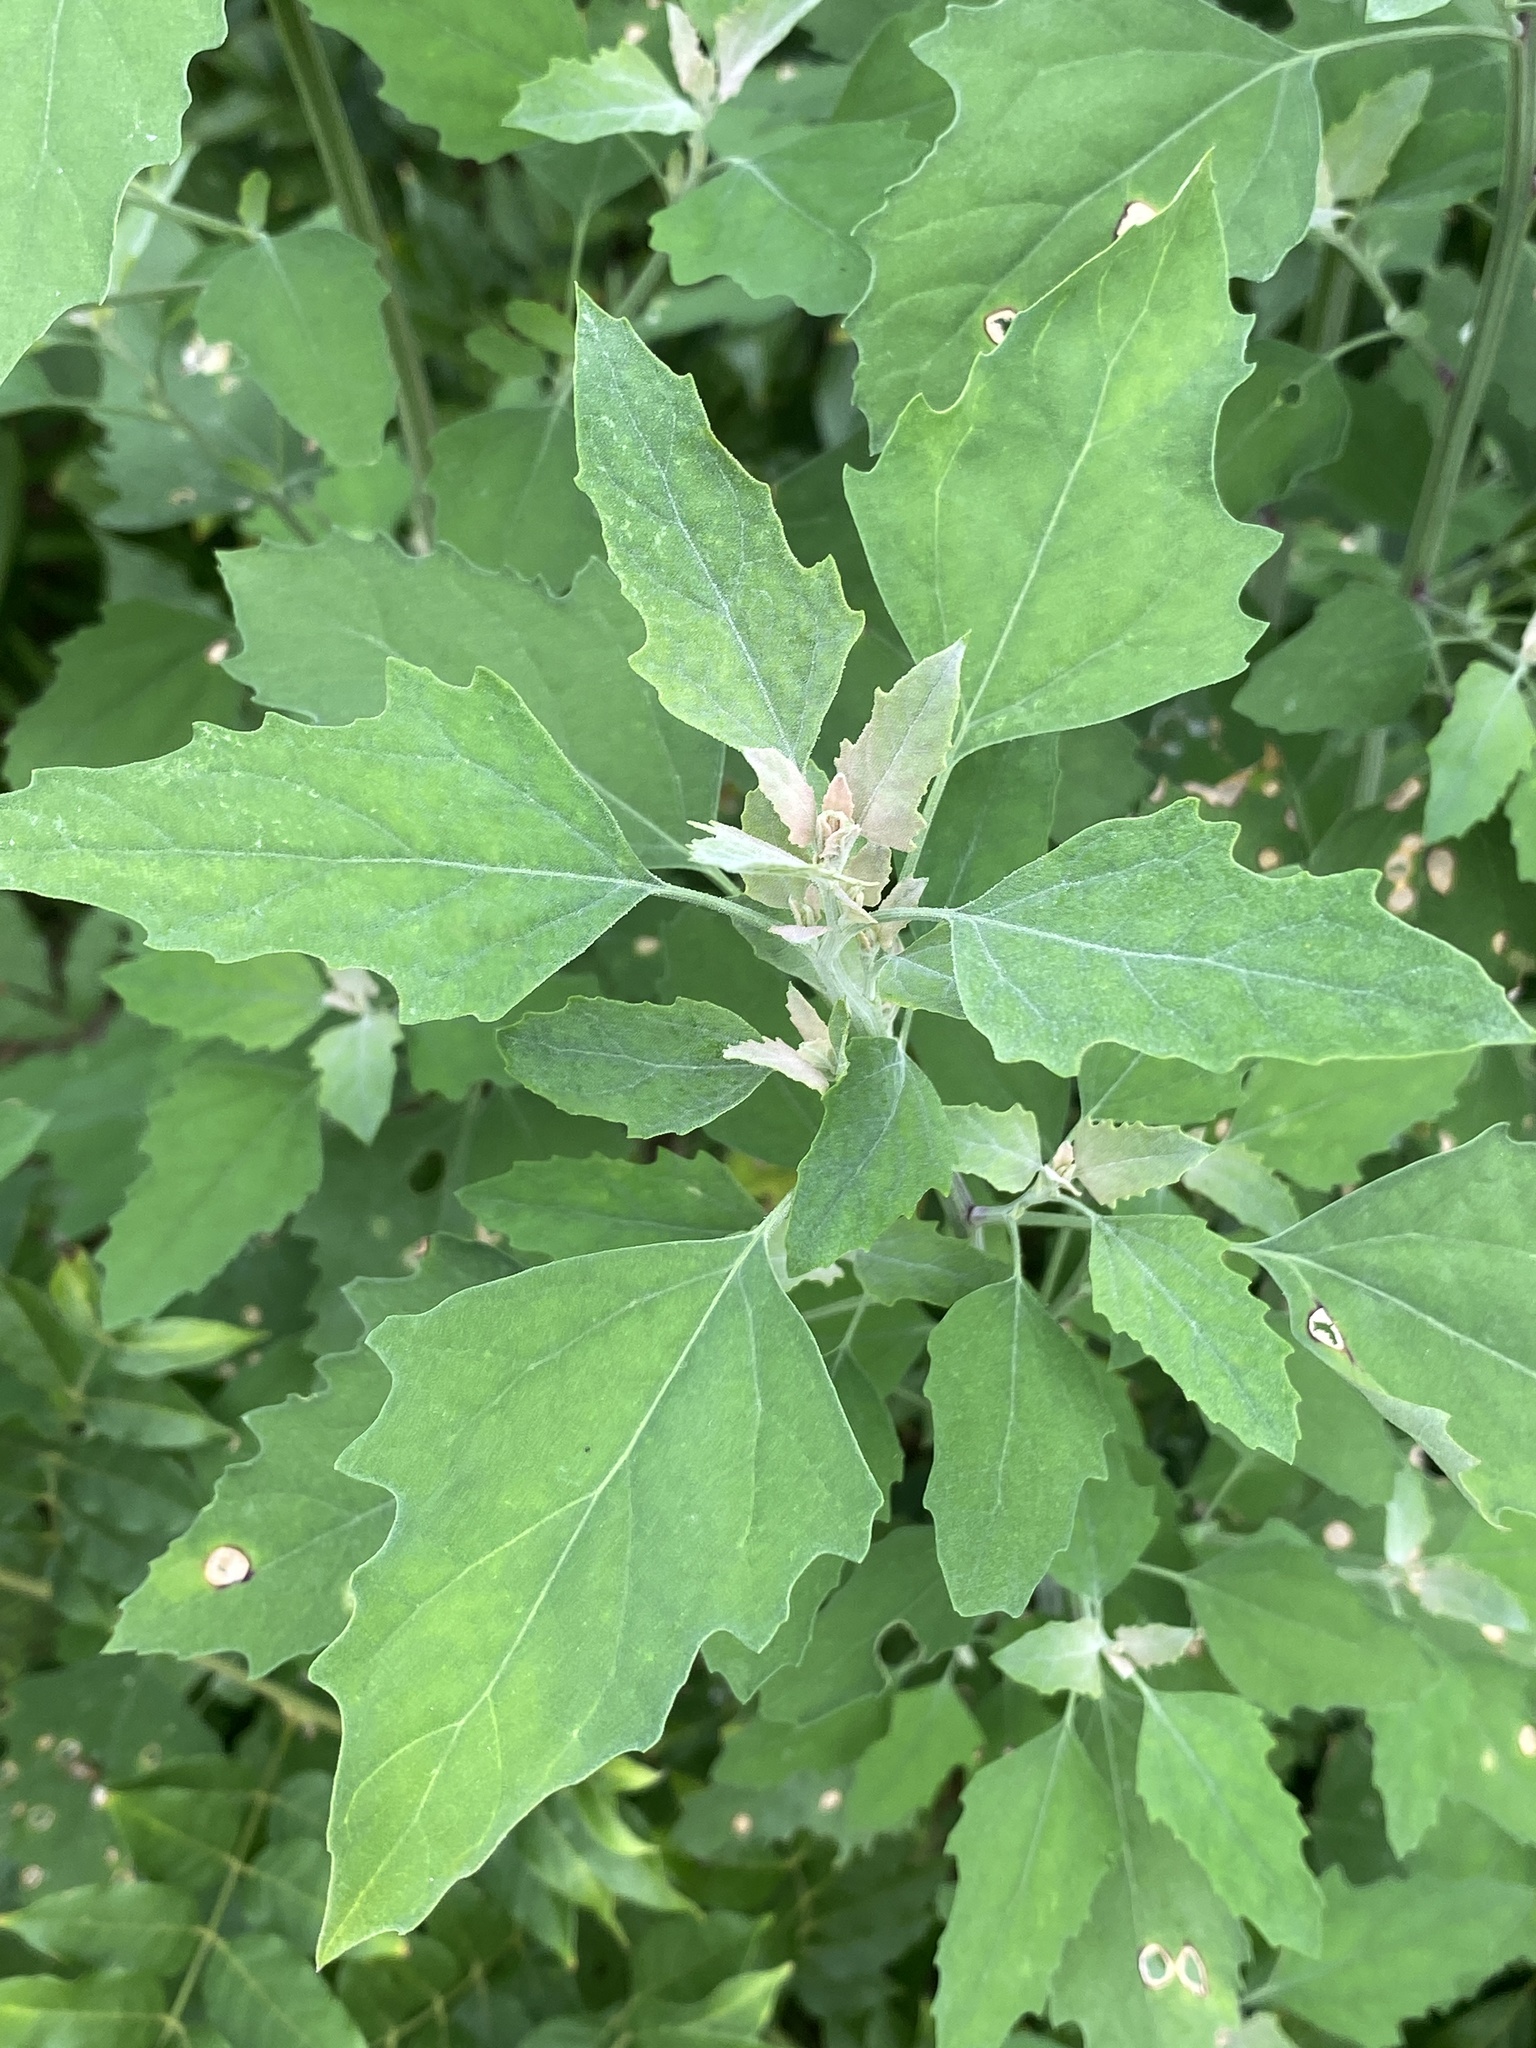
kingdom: Plantae
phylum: Tracheophyta
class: Magnoliopsida
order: Caryophyllales
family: Amaranthaceae
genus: Chenopodium
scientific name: Chenopodium album
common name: Fat-hen
